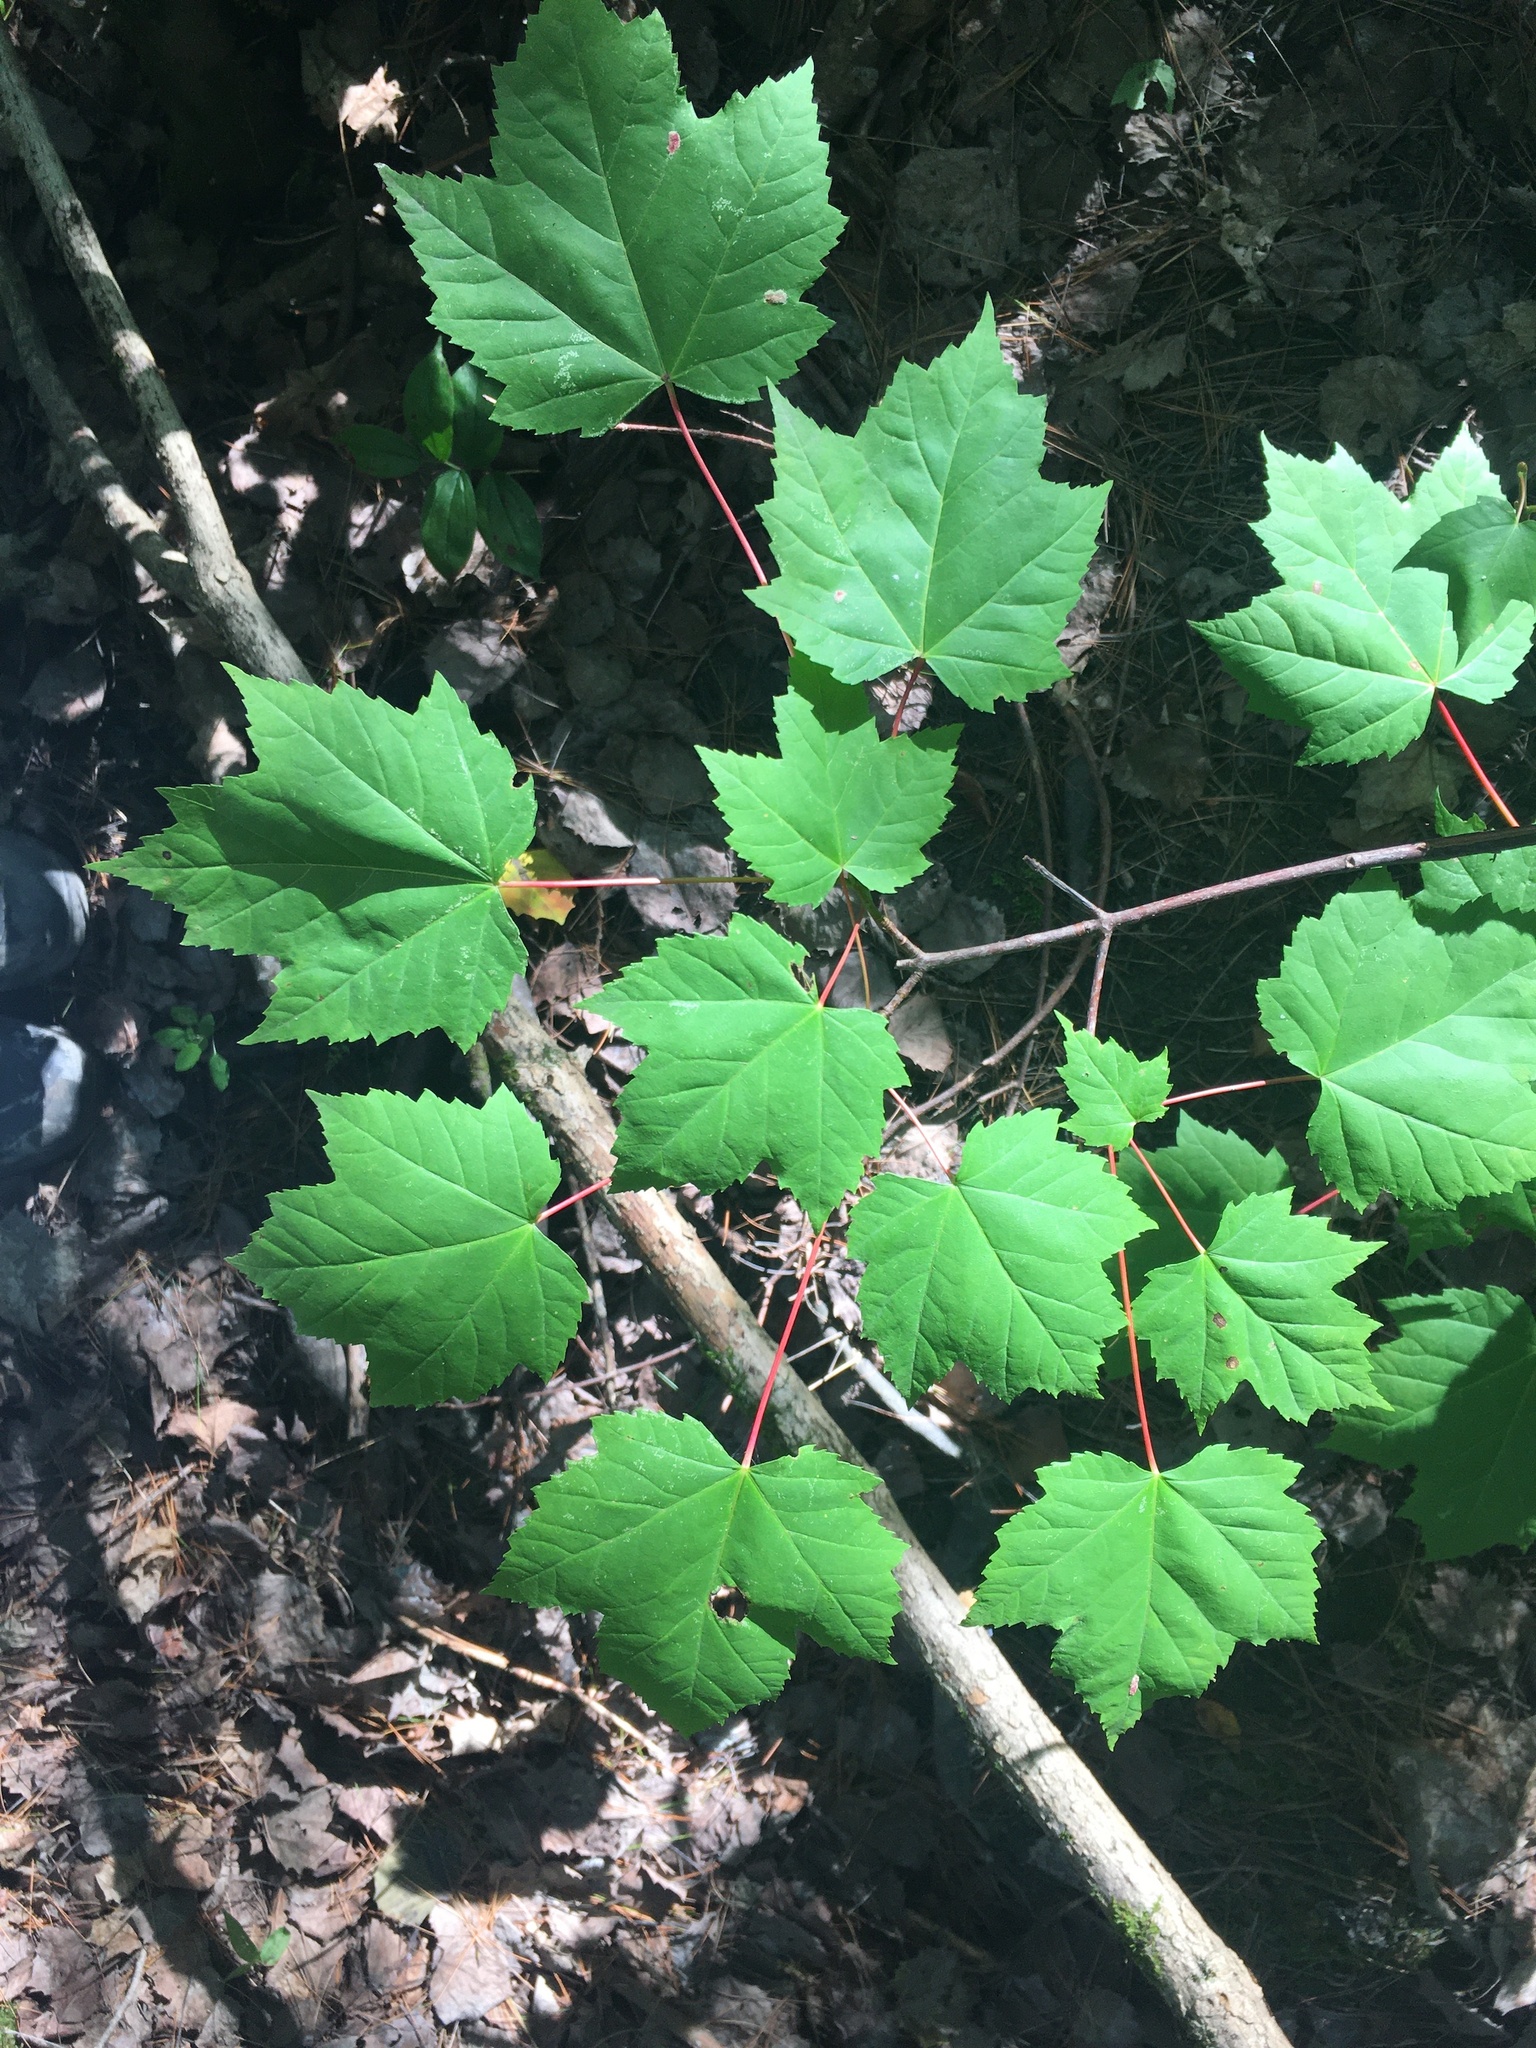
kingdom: Plantae
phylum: Tracheophyta
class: Magnoliopsida
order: Sapindales
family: Sapindaceae
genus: Acer
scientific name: Acer rubrum
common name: Red maple
